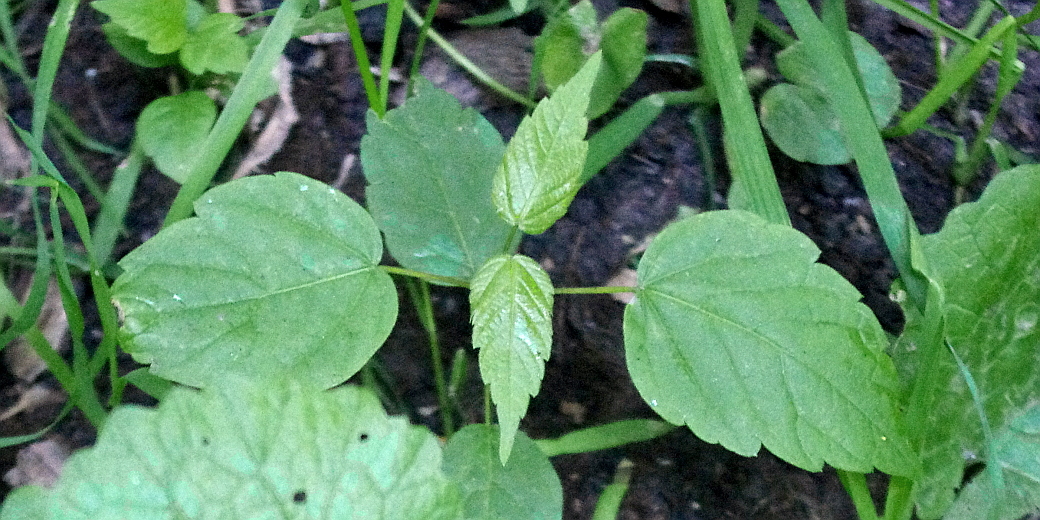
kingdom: Plantae
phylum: Tracheophyta
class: Magnoliopsida
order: Sapindales
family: Sapindaceae
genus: Acer
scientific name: Acer negundo
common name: Ashleaf maple
